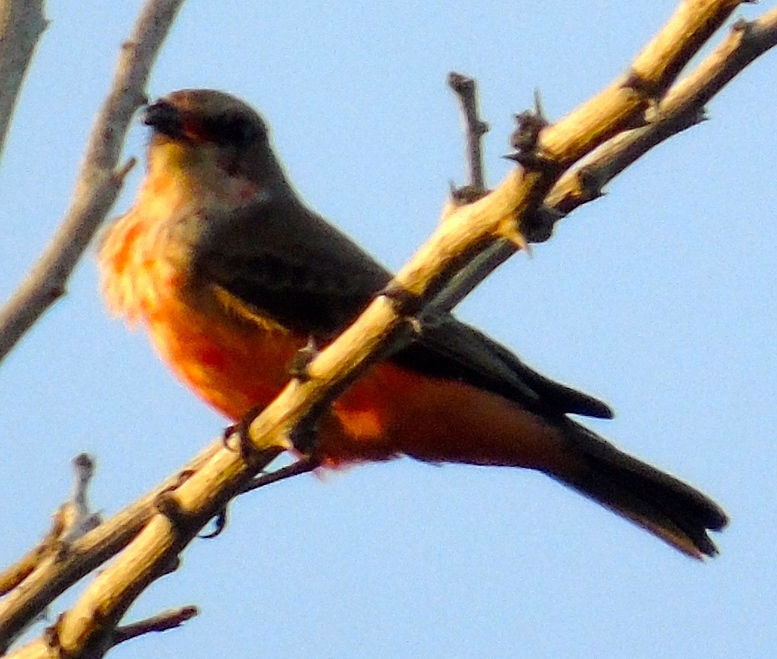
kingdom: Animalia
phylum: Chordata
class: Aves
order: Passeriformes
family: Tyrannidae
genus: Pyrocephalus
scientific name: Pyrocephalus rubinus
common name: Vermilion flycatcher
